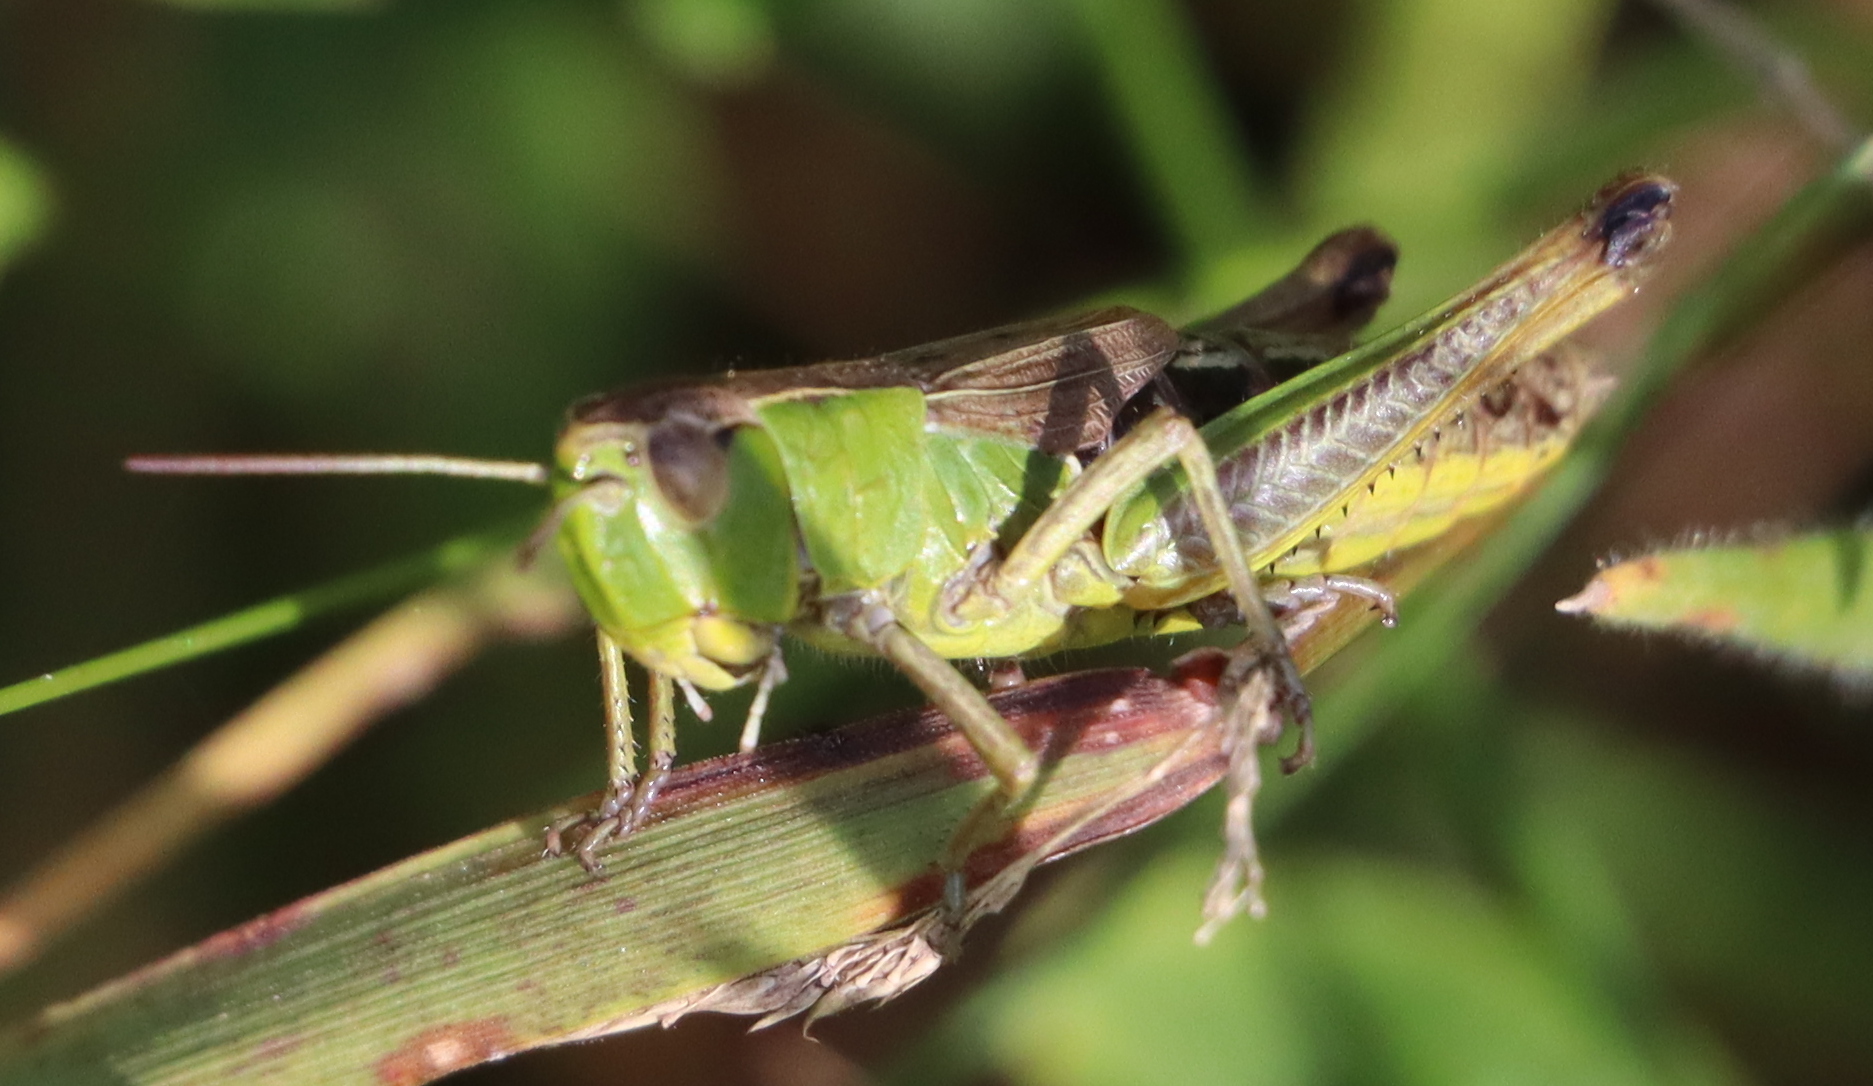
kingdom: Animalia
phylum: Arthropoda
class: Insecta
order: Orthoptera
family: Acrididae
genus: Pseudochorthippus
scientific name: Pseudochorthippus parallelus
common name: Meadow grasshopper
